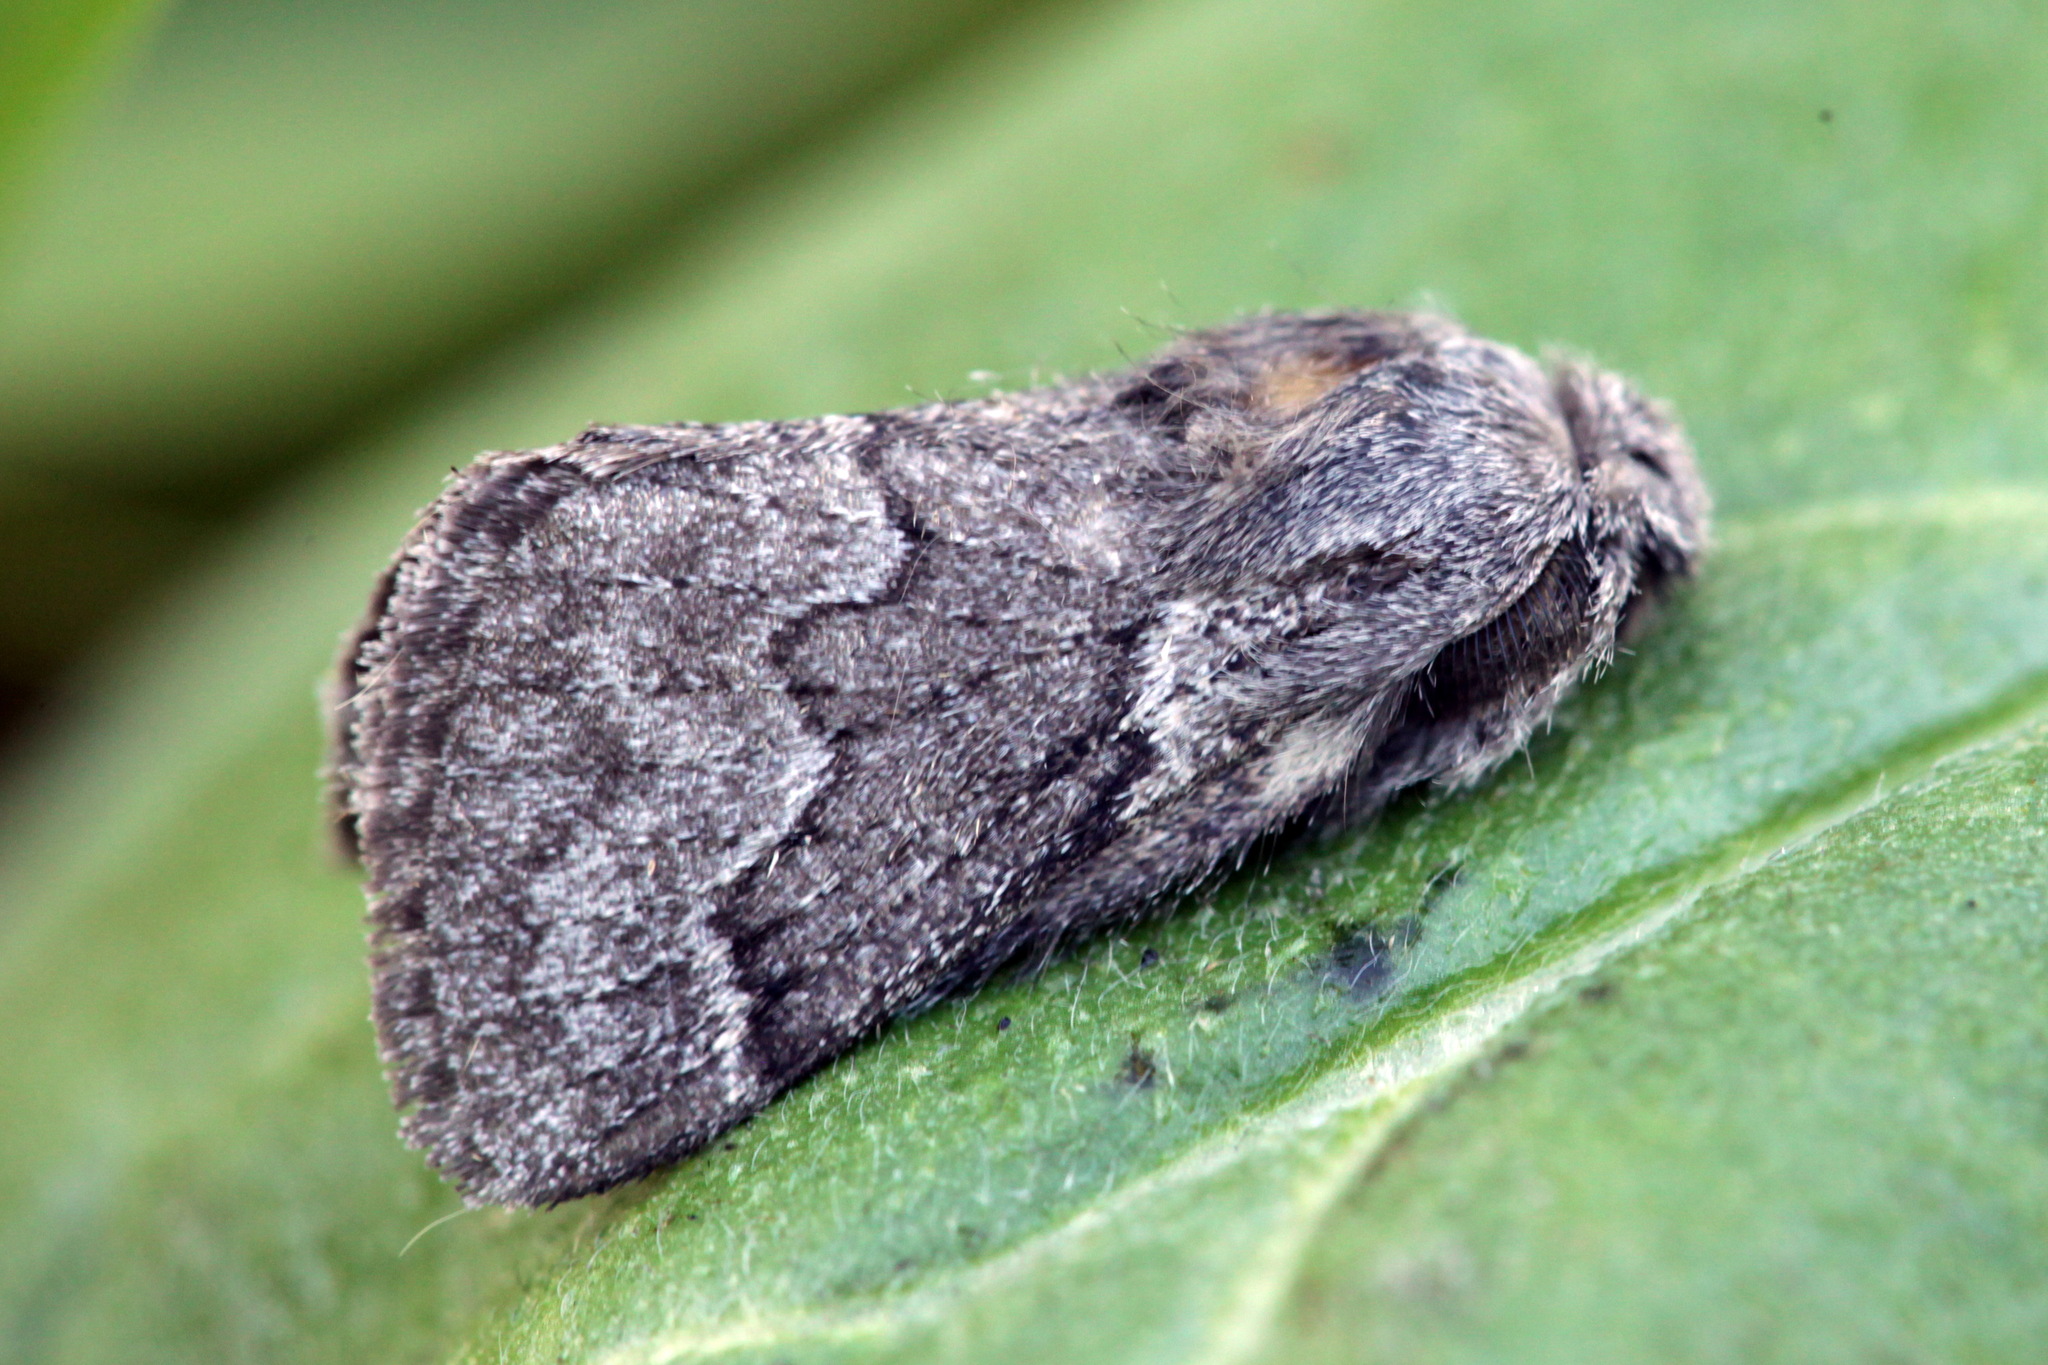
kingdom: Animalia
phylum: Arthropoda
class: Insecta
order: Lepidoptera
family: Lasiocampidae
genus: Trichiura
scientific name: Trichiura crataegi
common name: Pale eggar
